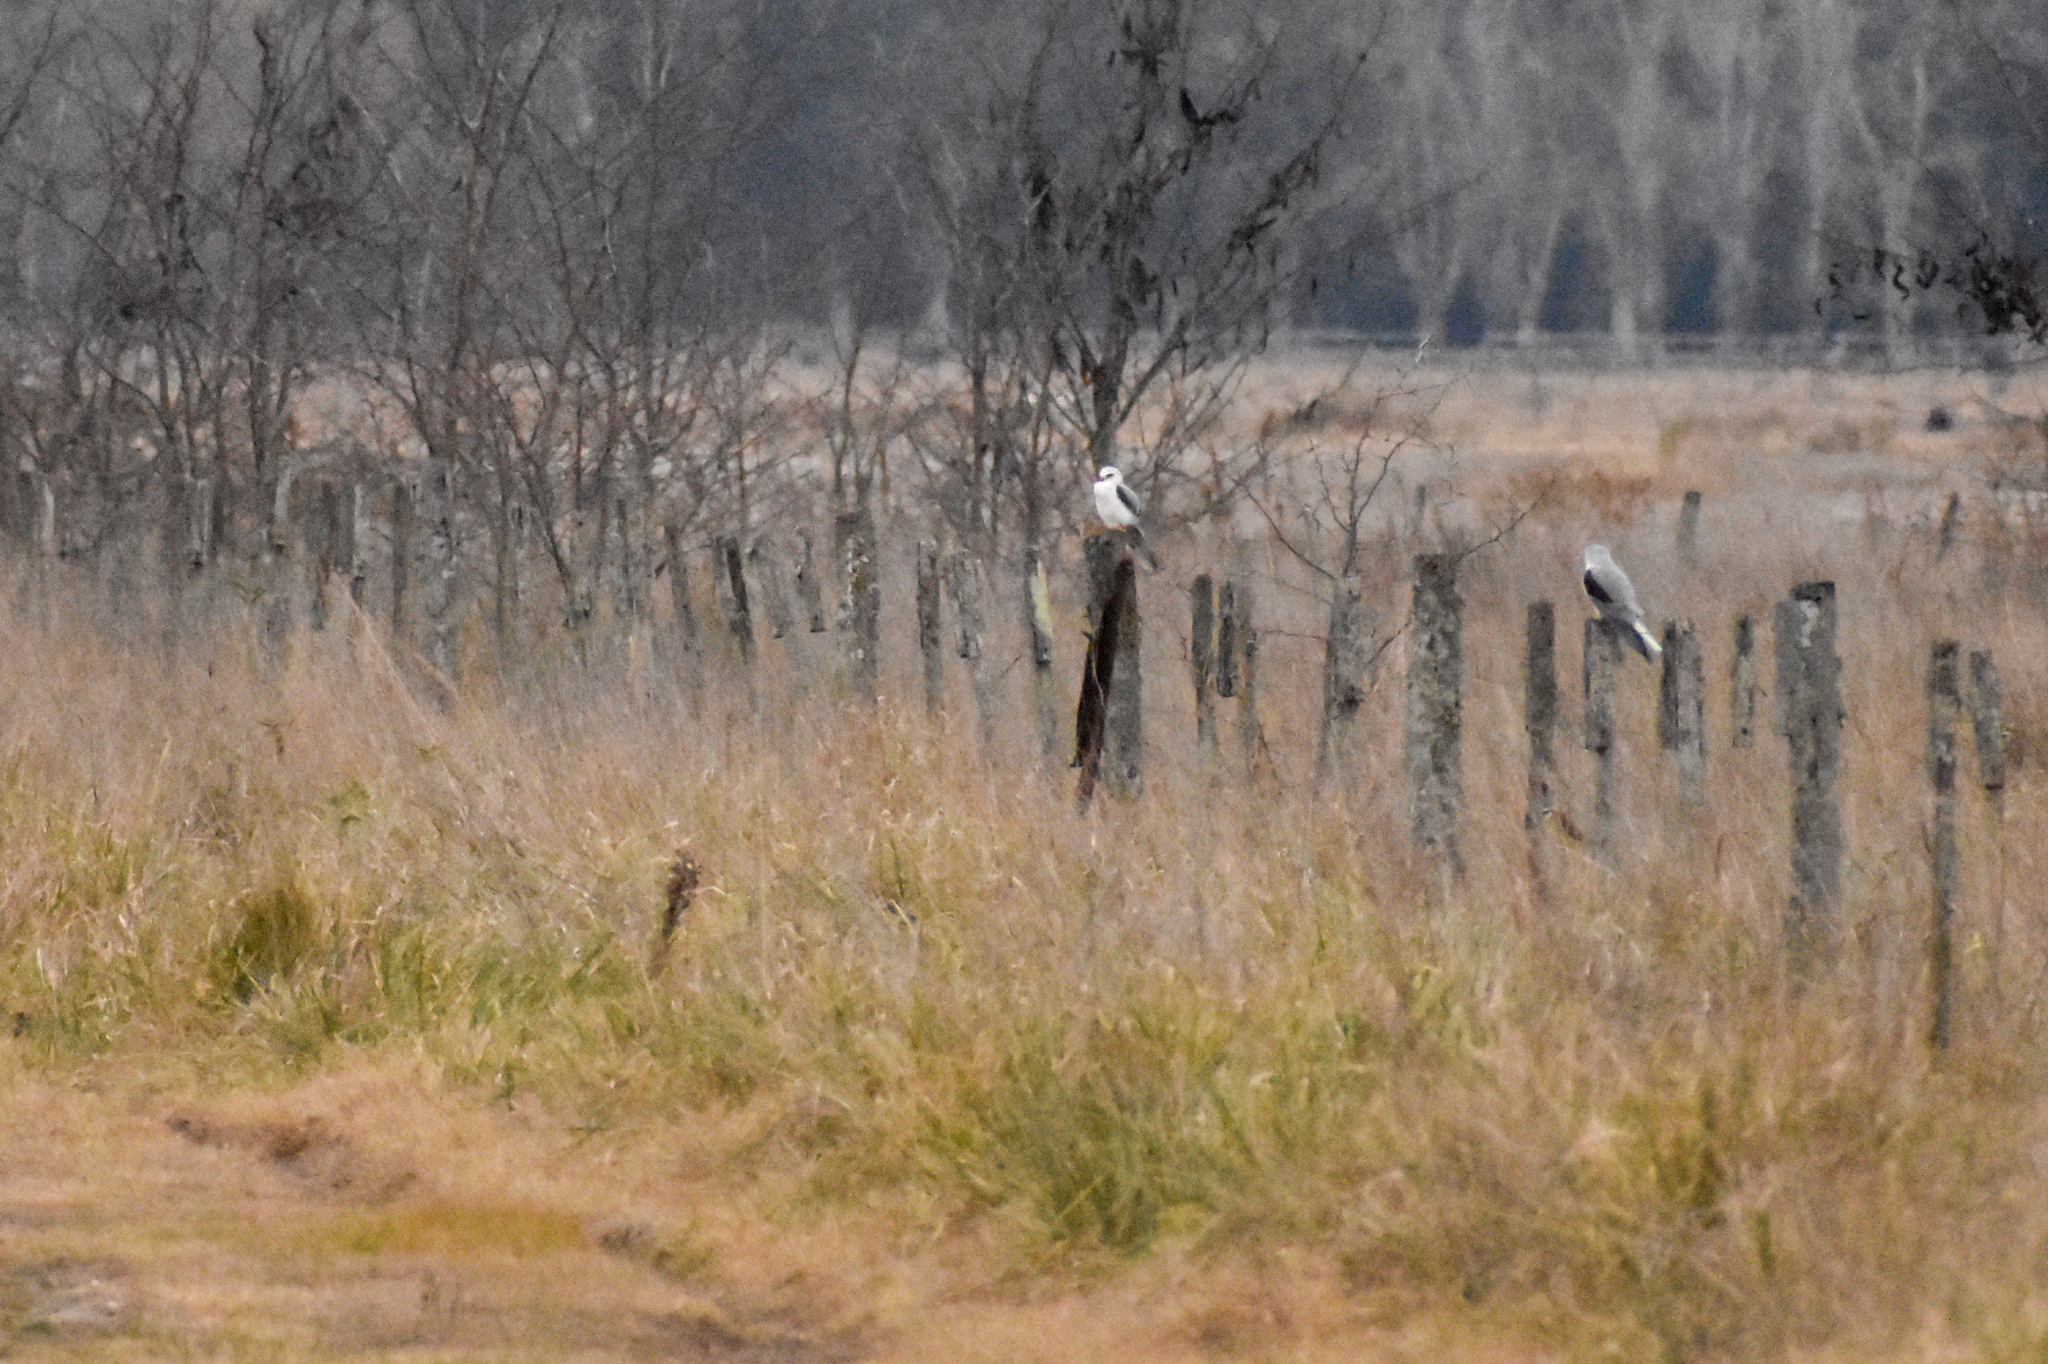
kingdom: Animalia
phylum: Chordata
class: Aves
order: Accipitriformes
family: Accipitridae
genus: Elanus
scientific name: Elanus leucurus
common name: White-tailed kite
